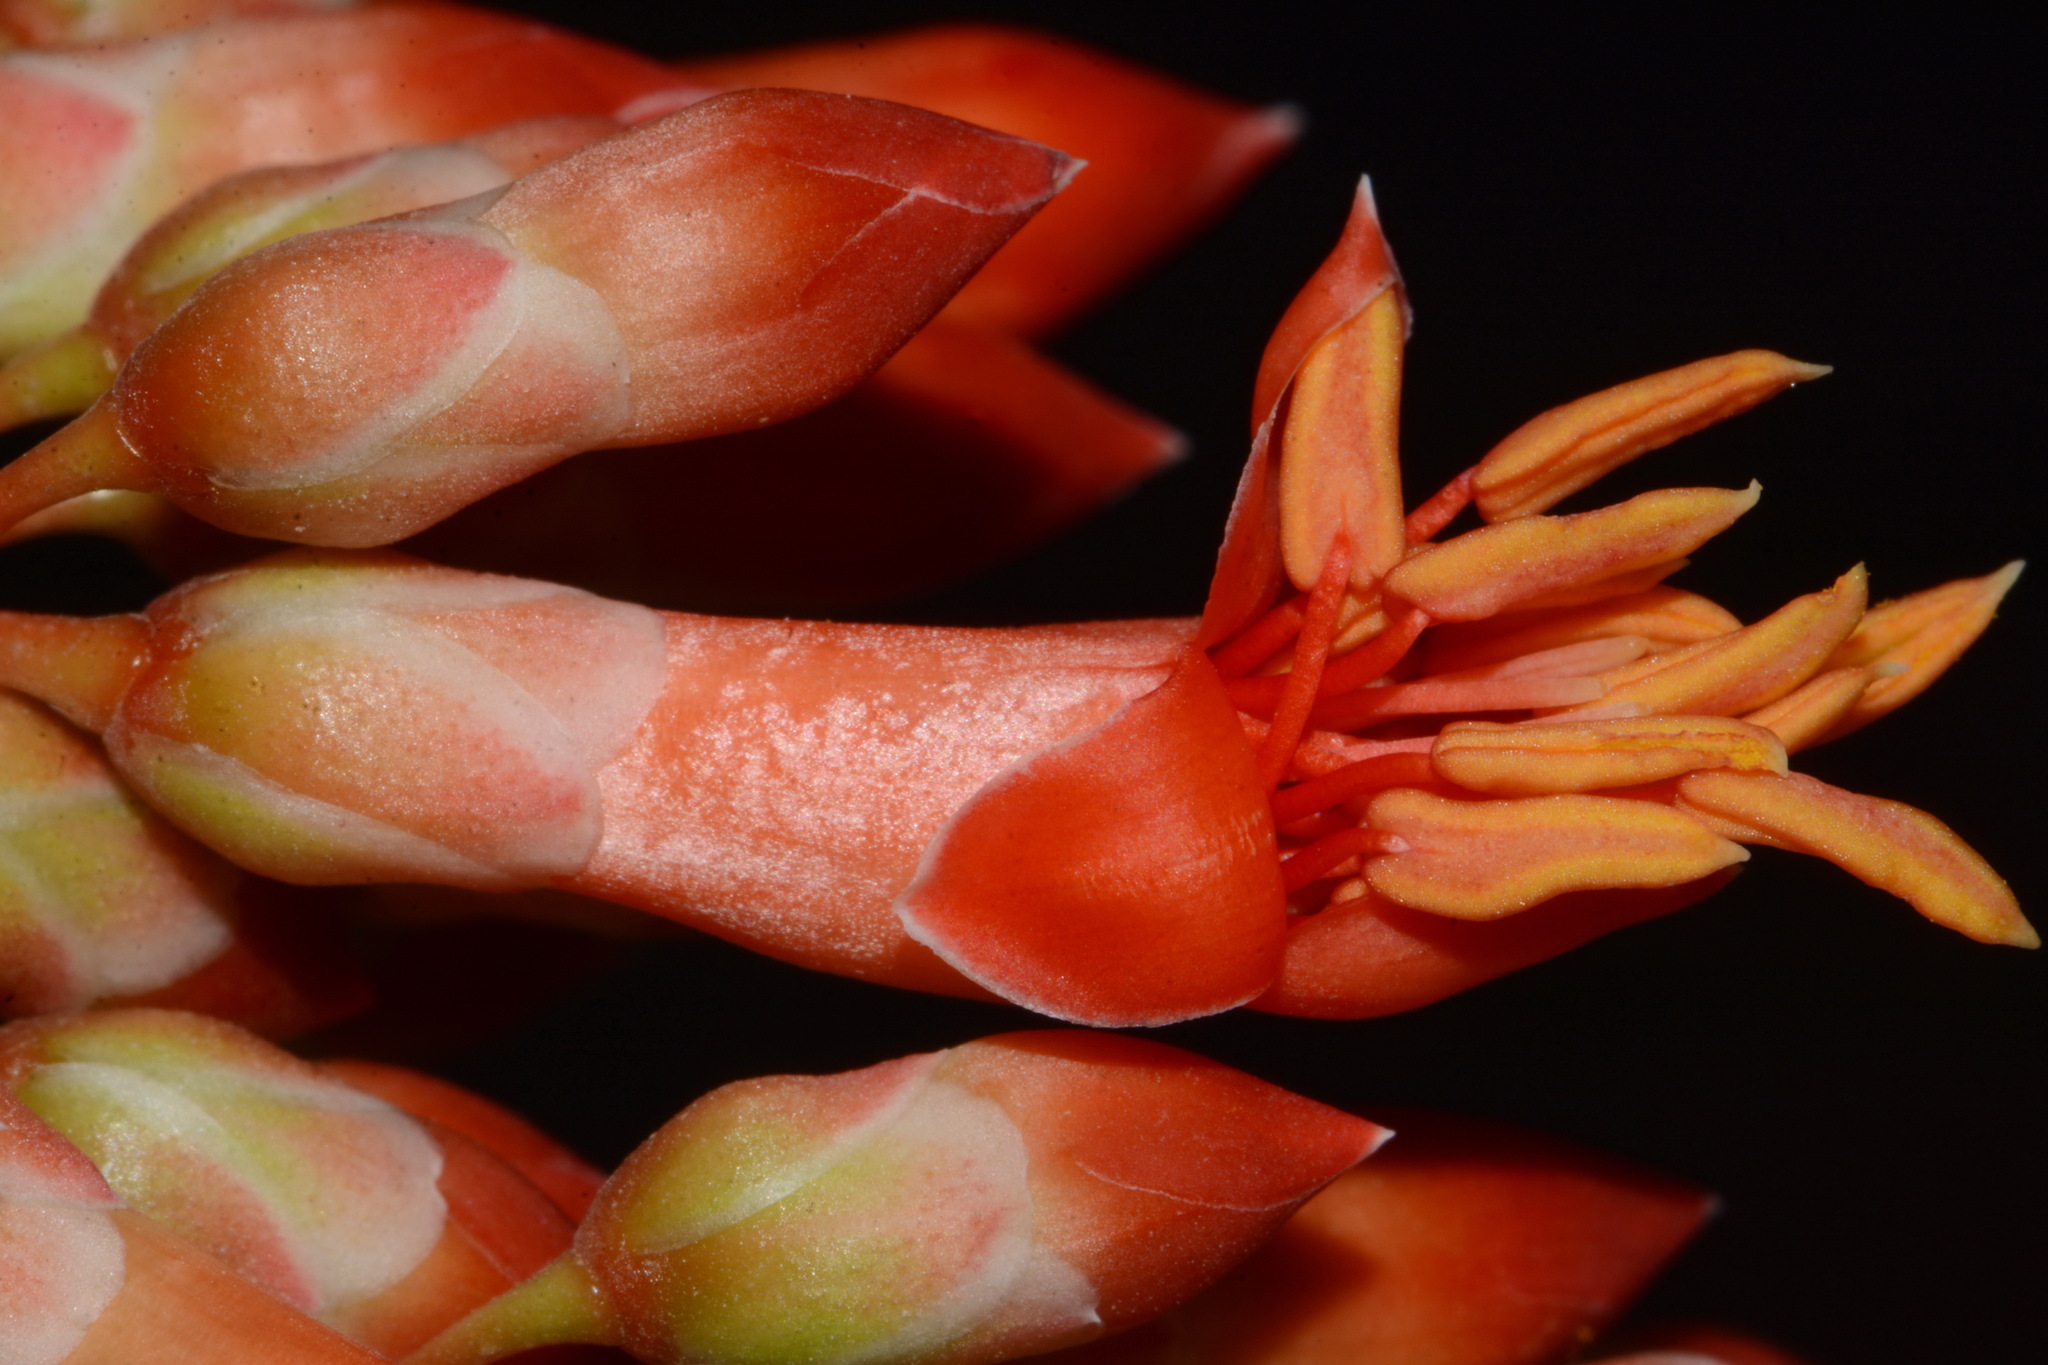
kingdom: Plantae
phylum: Tracheophyta
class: Magnoliopsida
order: Ericales
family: Fouquieriaceae
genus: Fouquieria
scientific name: Fouquieria splendens
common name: Vine-cactus
